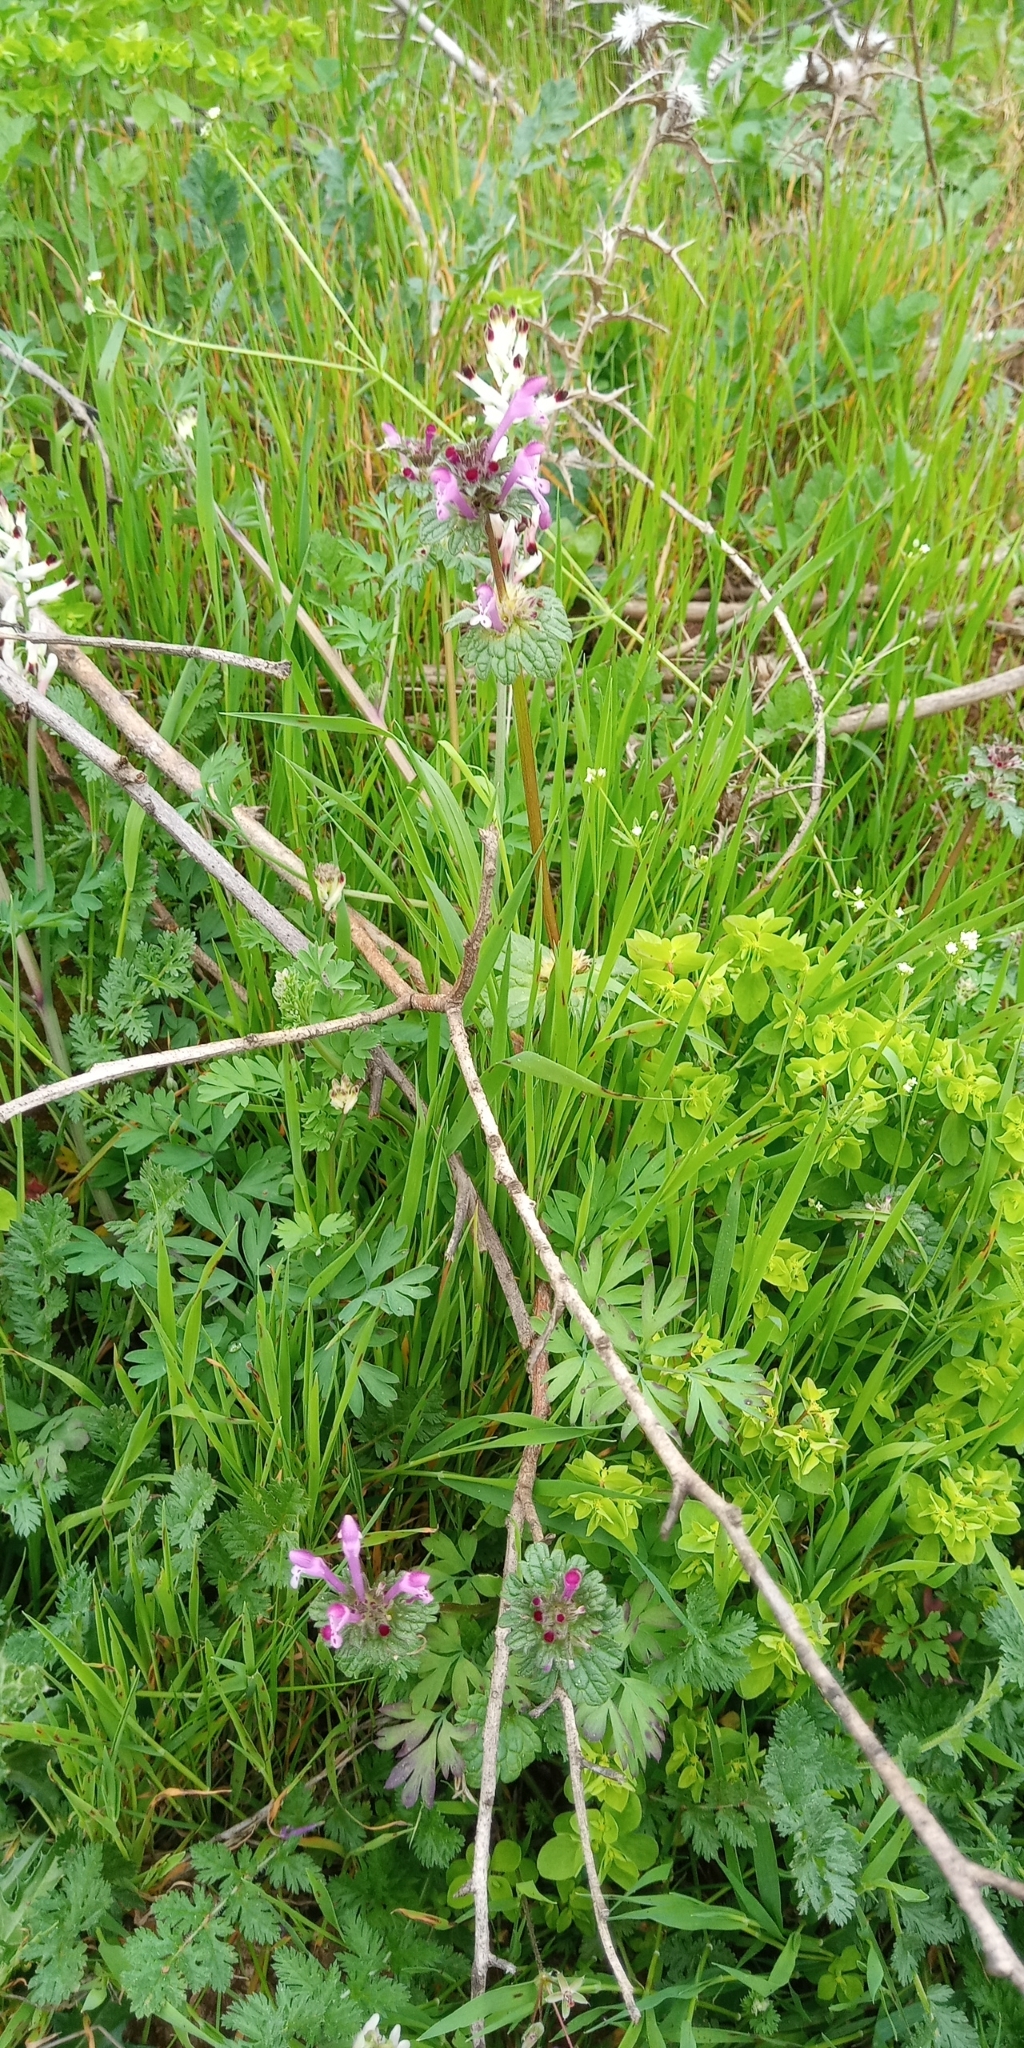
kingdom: Plantae
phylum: Tracheophyta
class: Magnoliopsida
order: Lamiales
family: Lamiaceae
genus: Lamium
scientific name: Lamium amplexicaule
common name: Henbit dead-nettle
